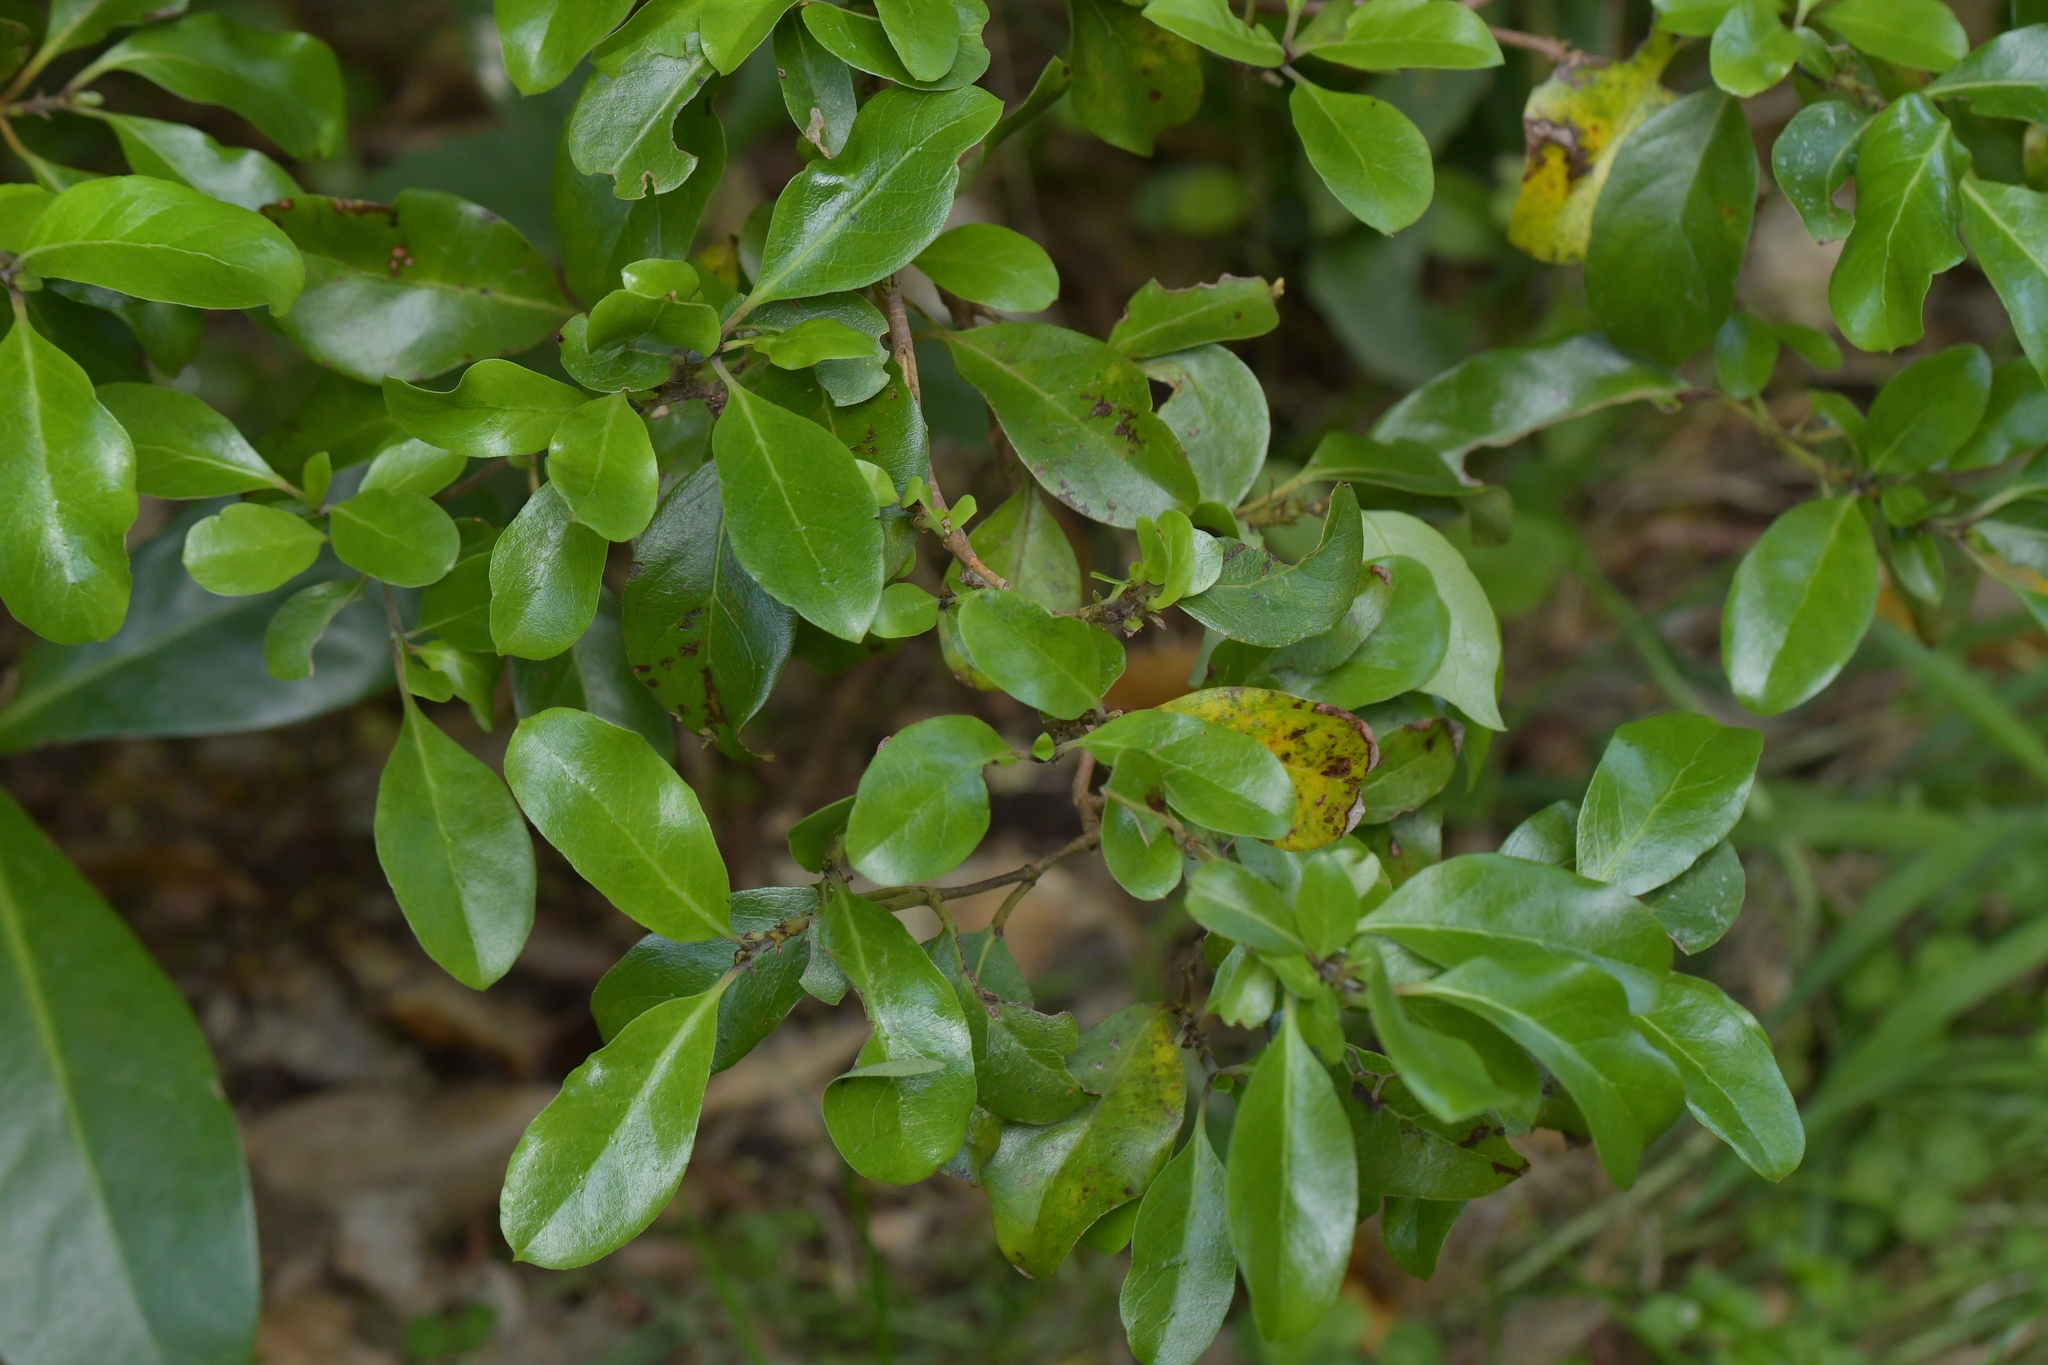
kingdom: Plantae
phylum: Tracheophyta
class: Magnoliopsida
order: Gentianales
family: Rubiaceae
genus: Coprosma
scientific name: Coprosma chathamica
